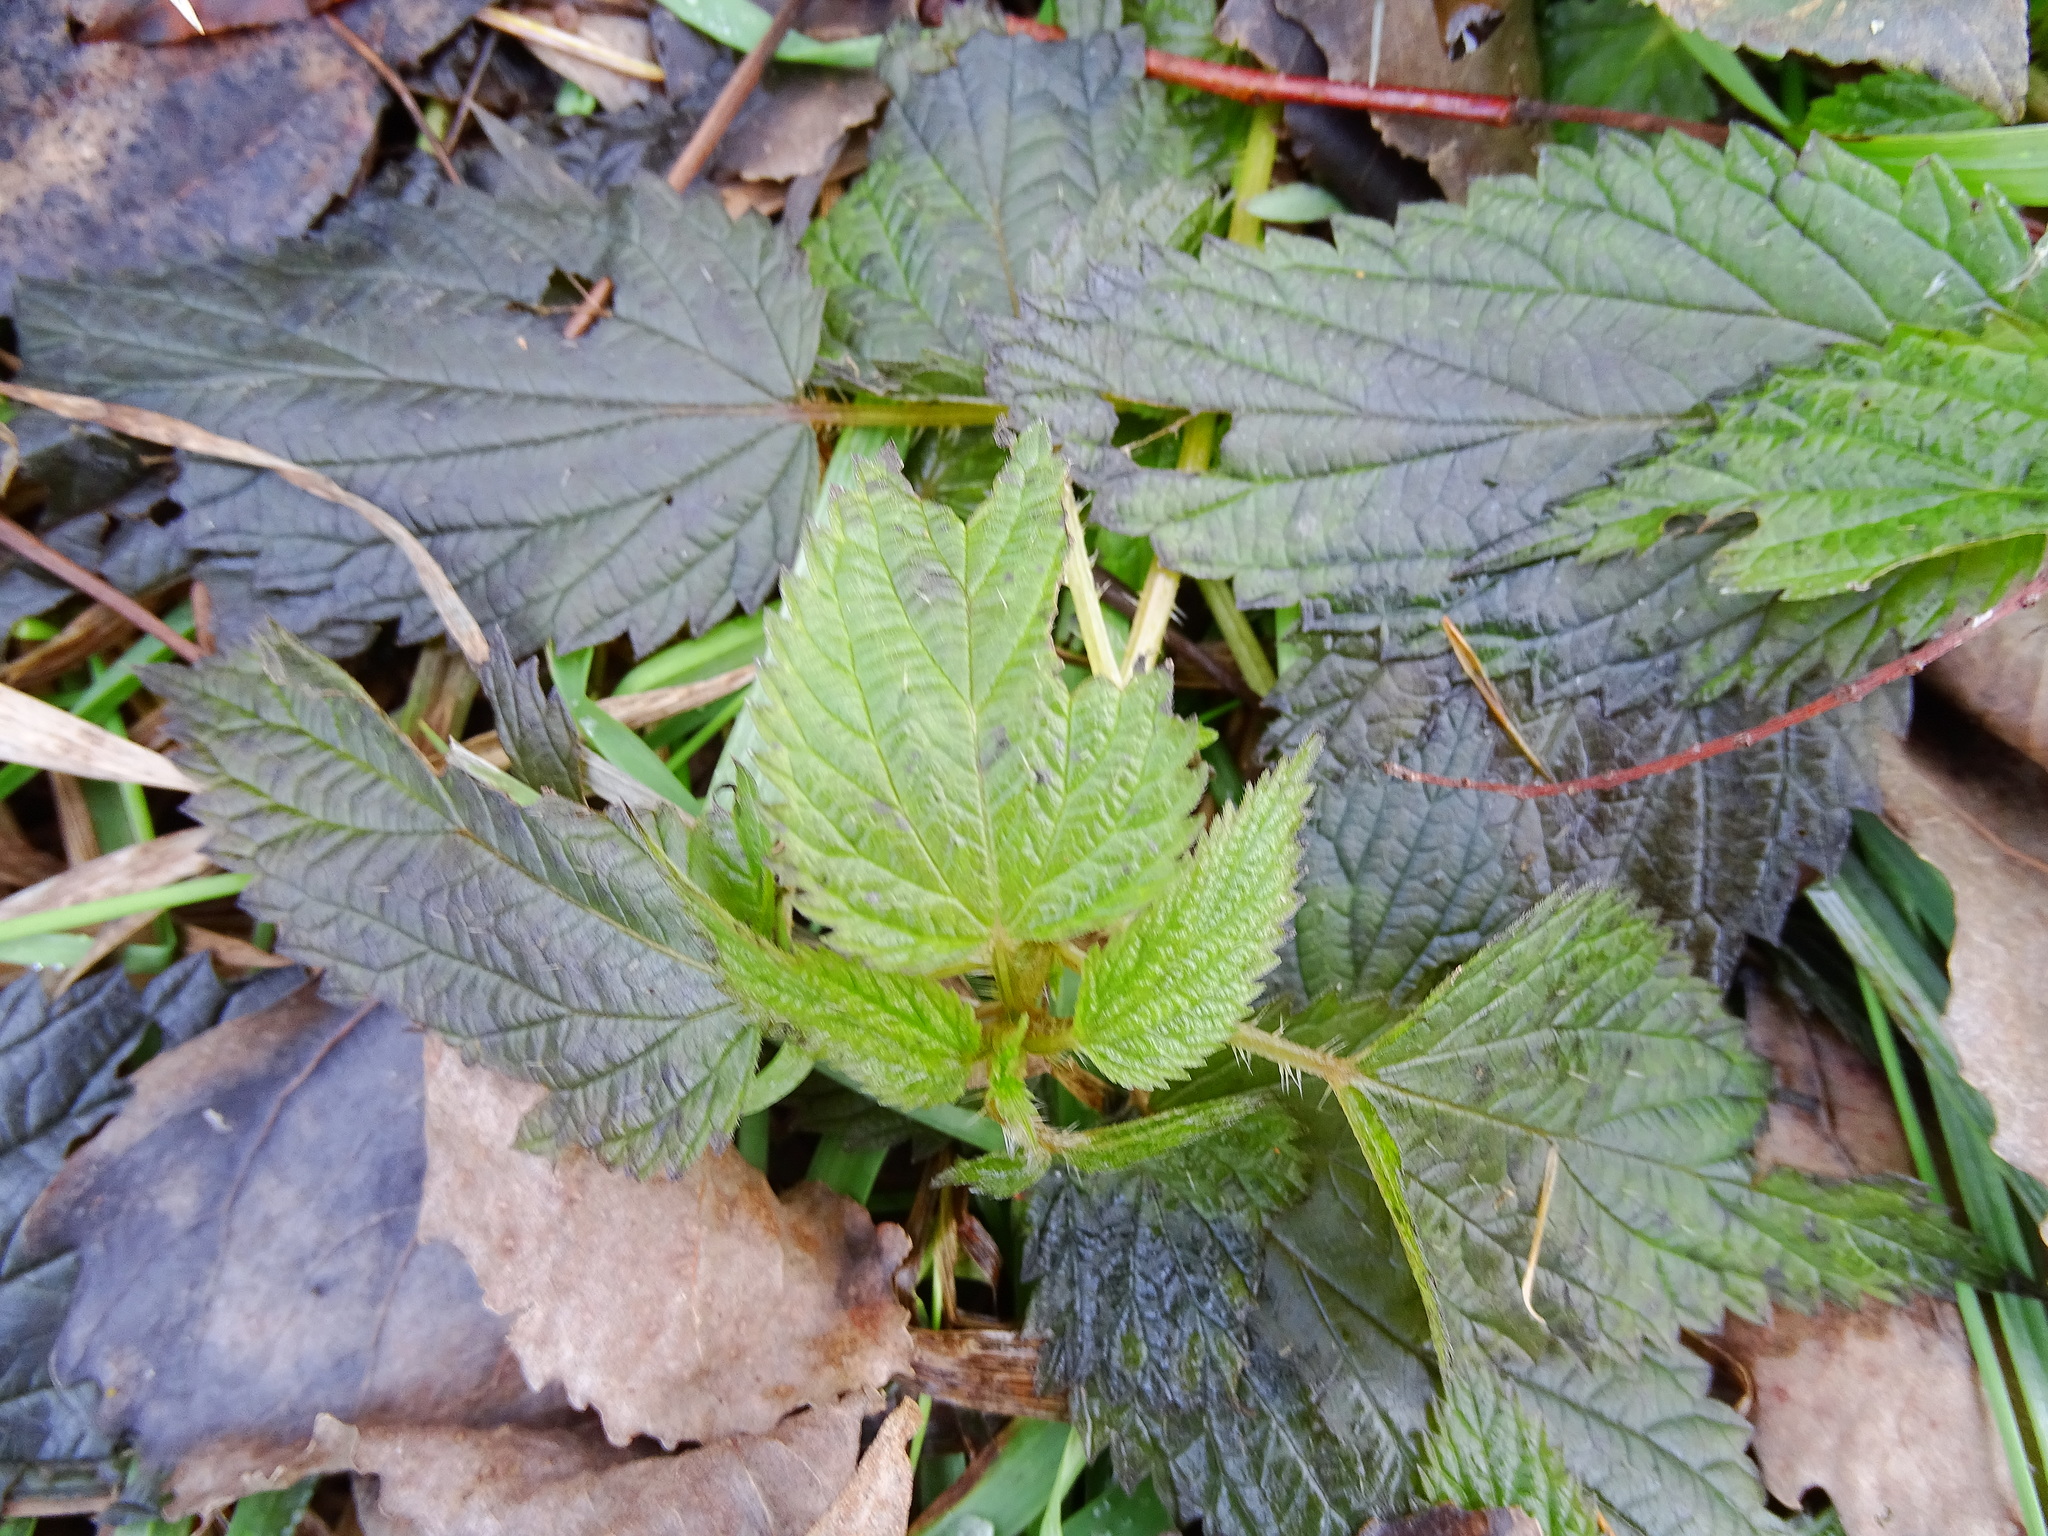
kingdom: Plantae
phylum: Tracheophyta
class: Magnoliopsida
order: Rosales
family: Urticaceae
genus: Urtica
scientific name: Urtica dioica
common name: Common nettle
